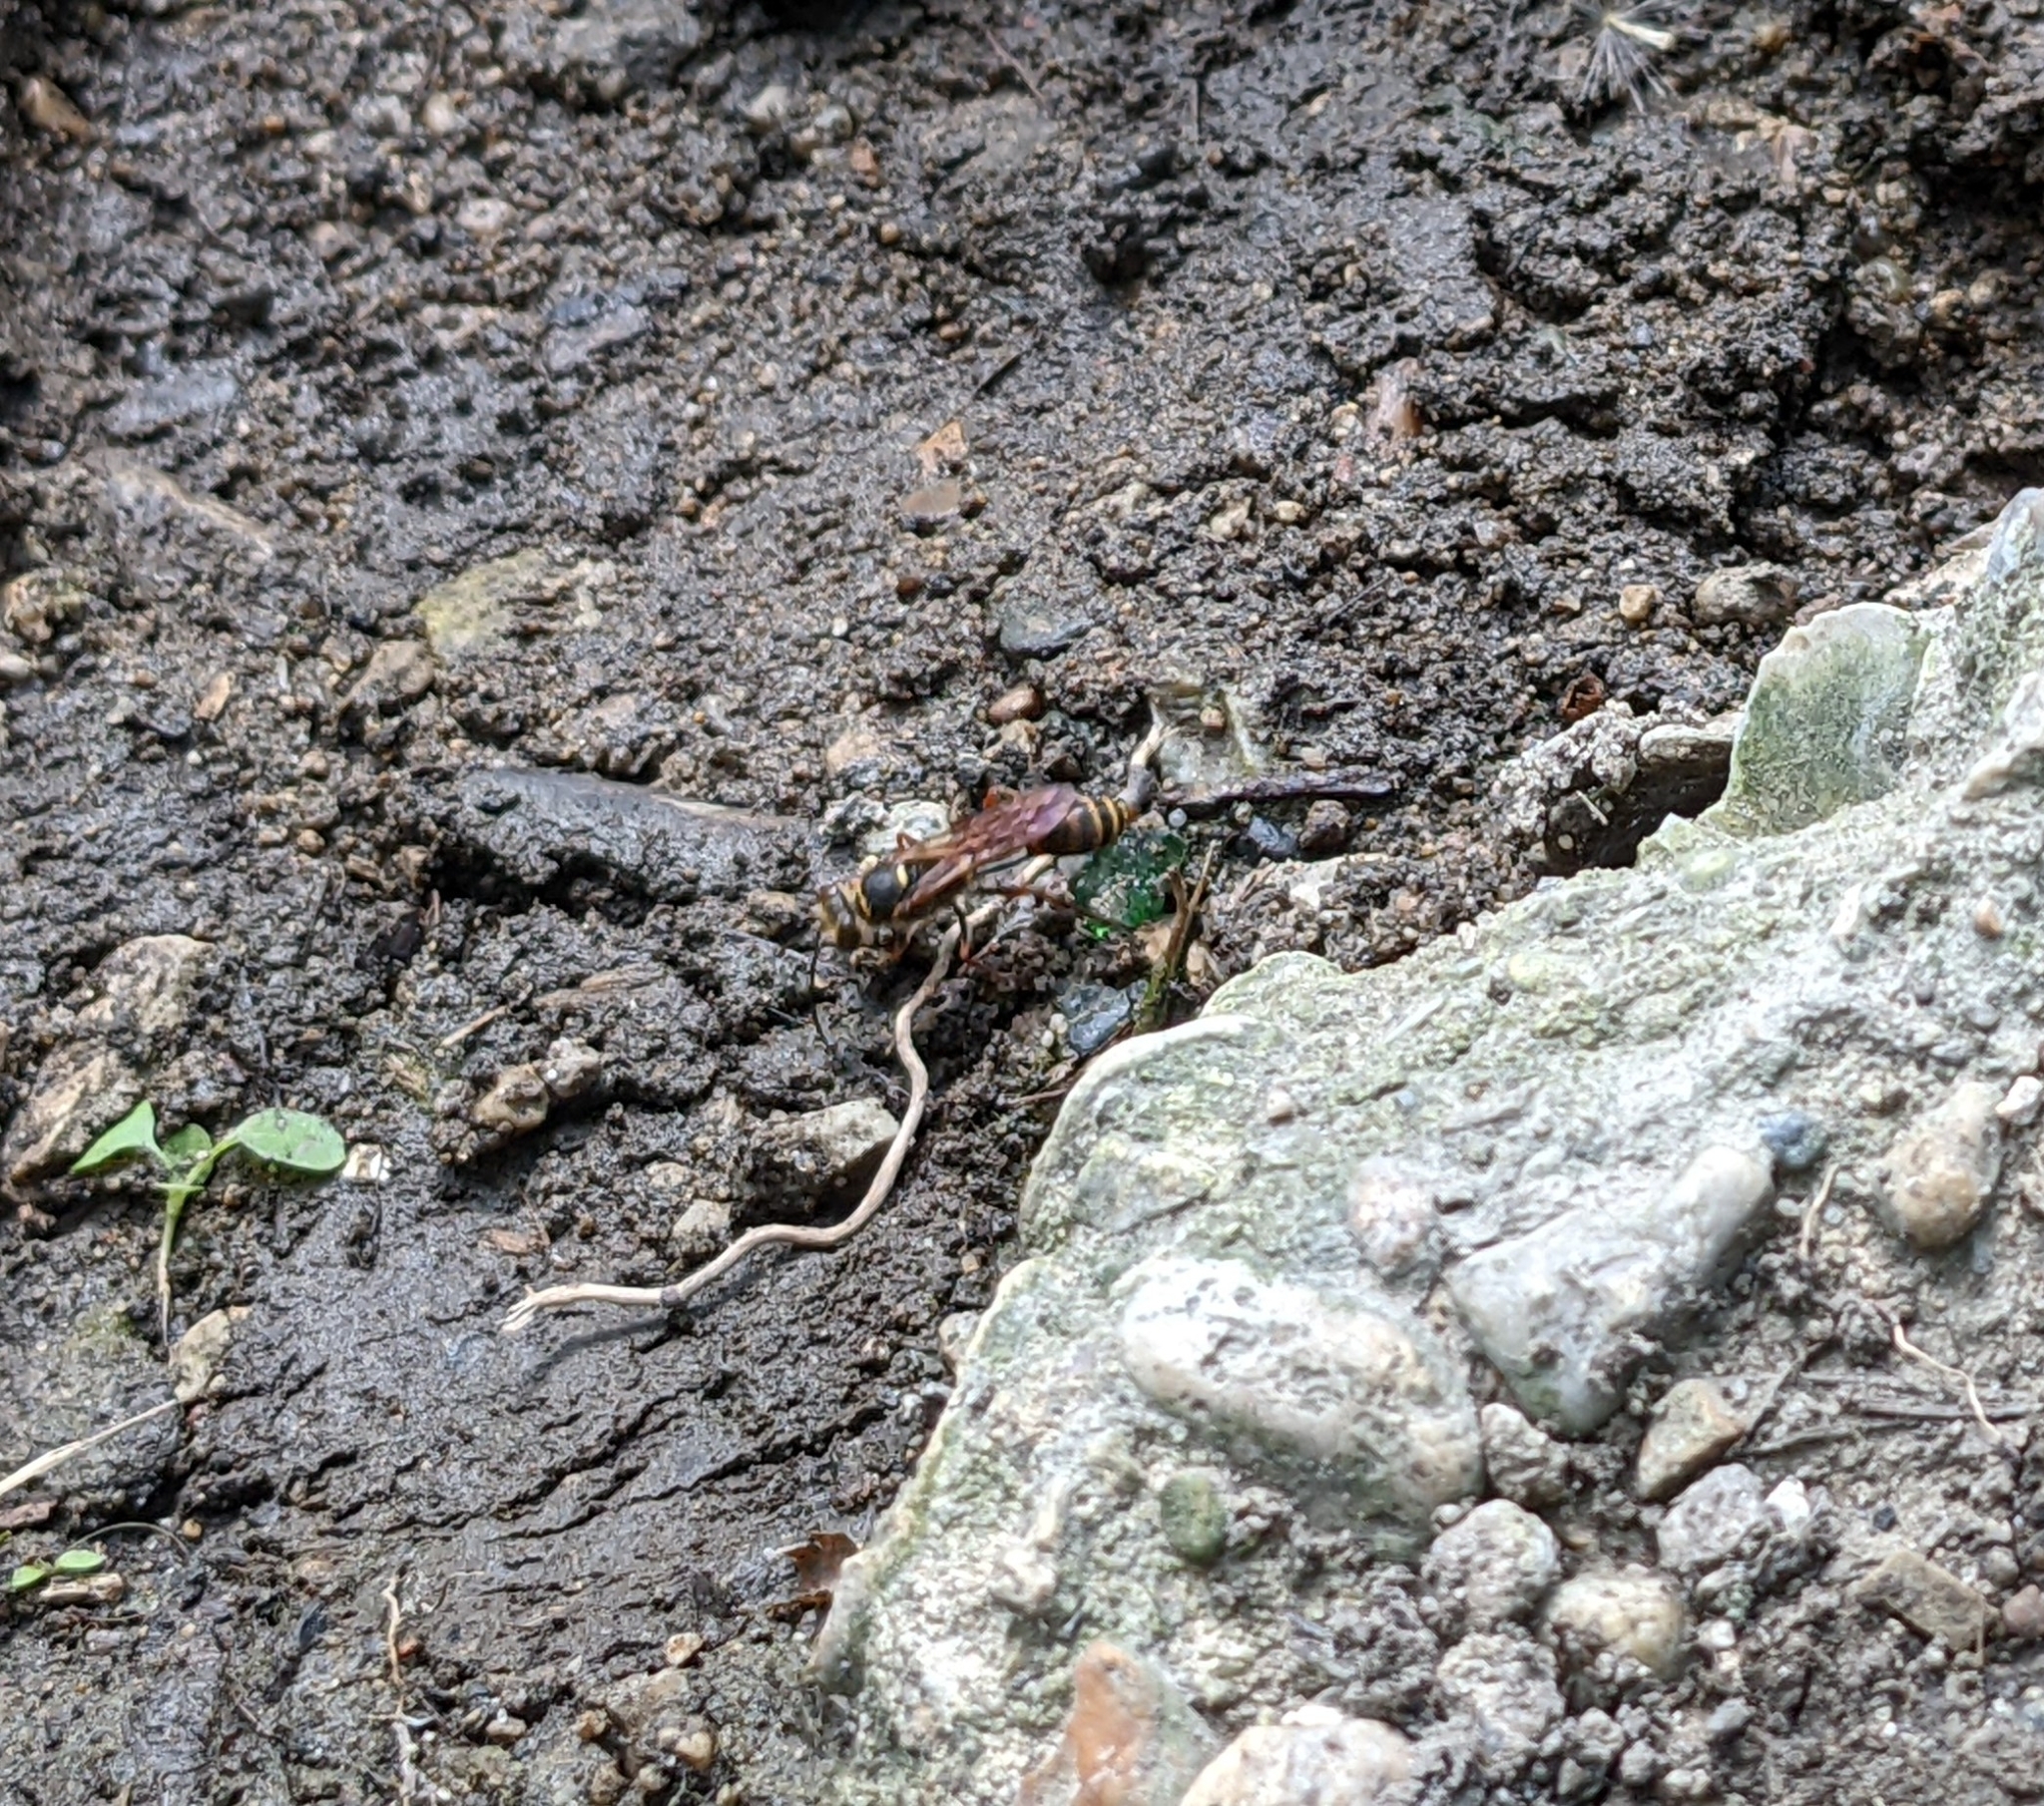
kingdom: Animalia
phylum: Arthropoda
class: Insecta
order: Hymenoptera
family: Sphecidae
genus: Sceliphron
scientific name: Sceliphron curvatum
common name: Pèlopèe
